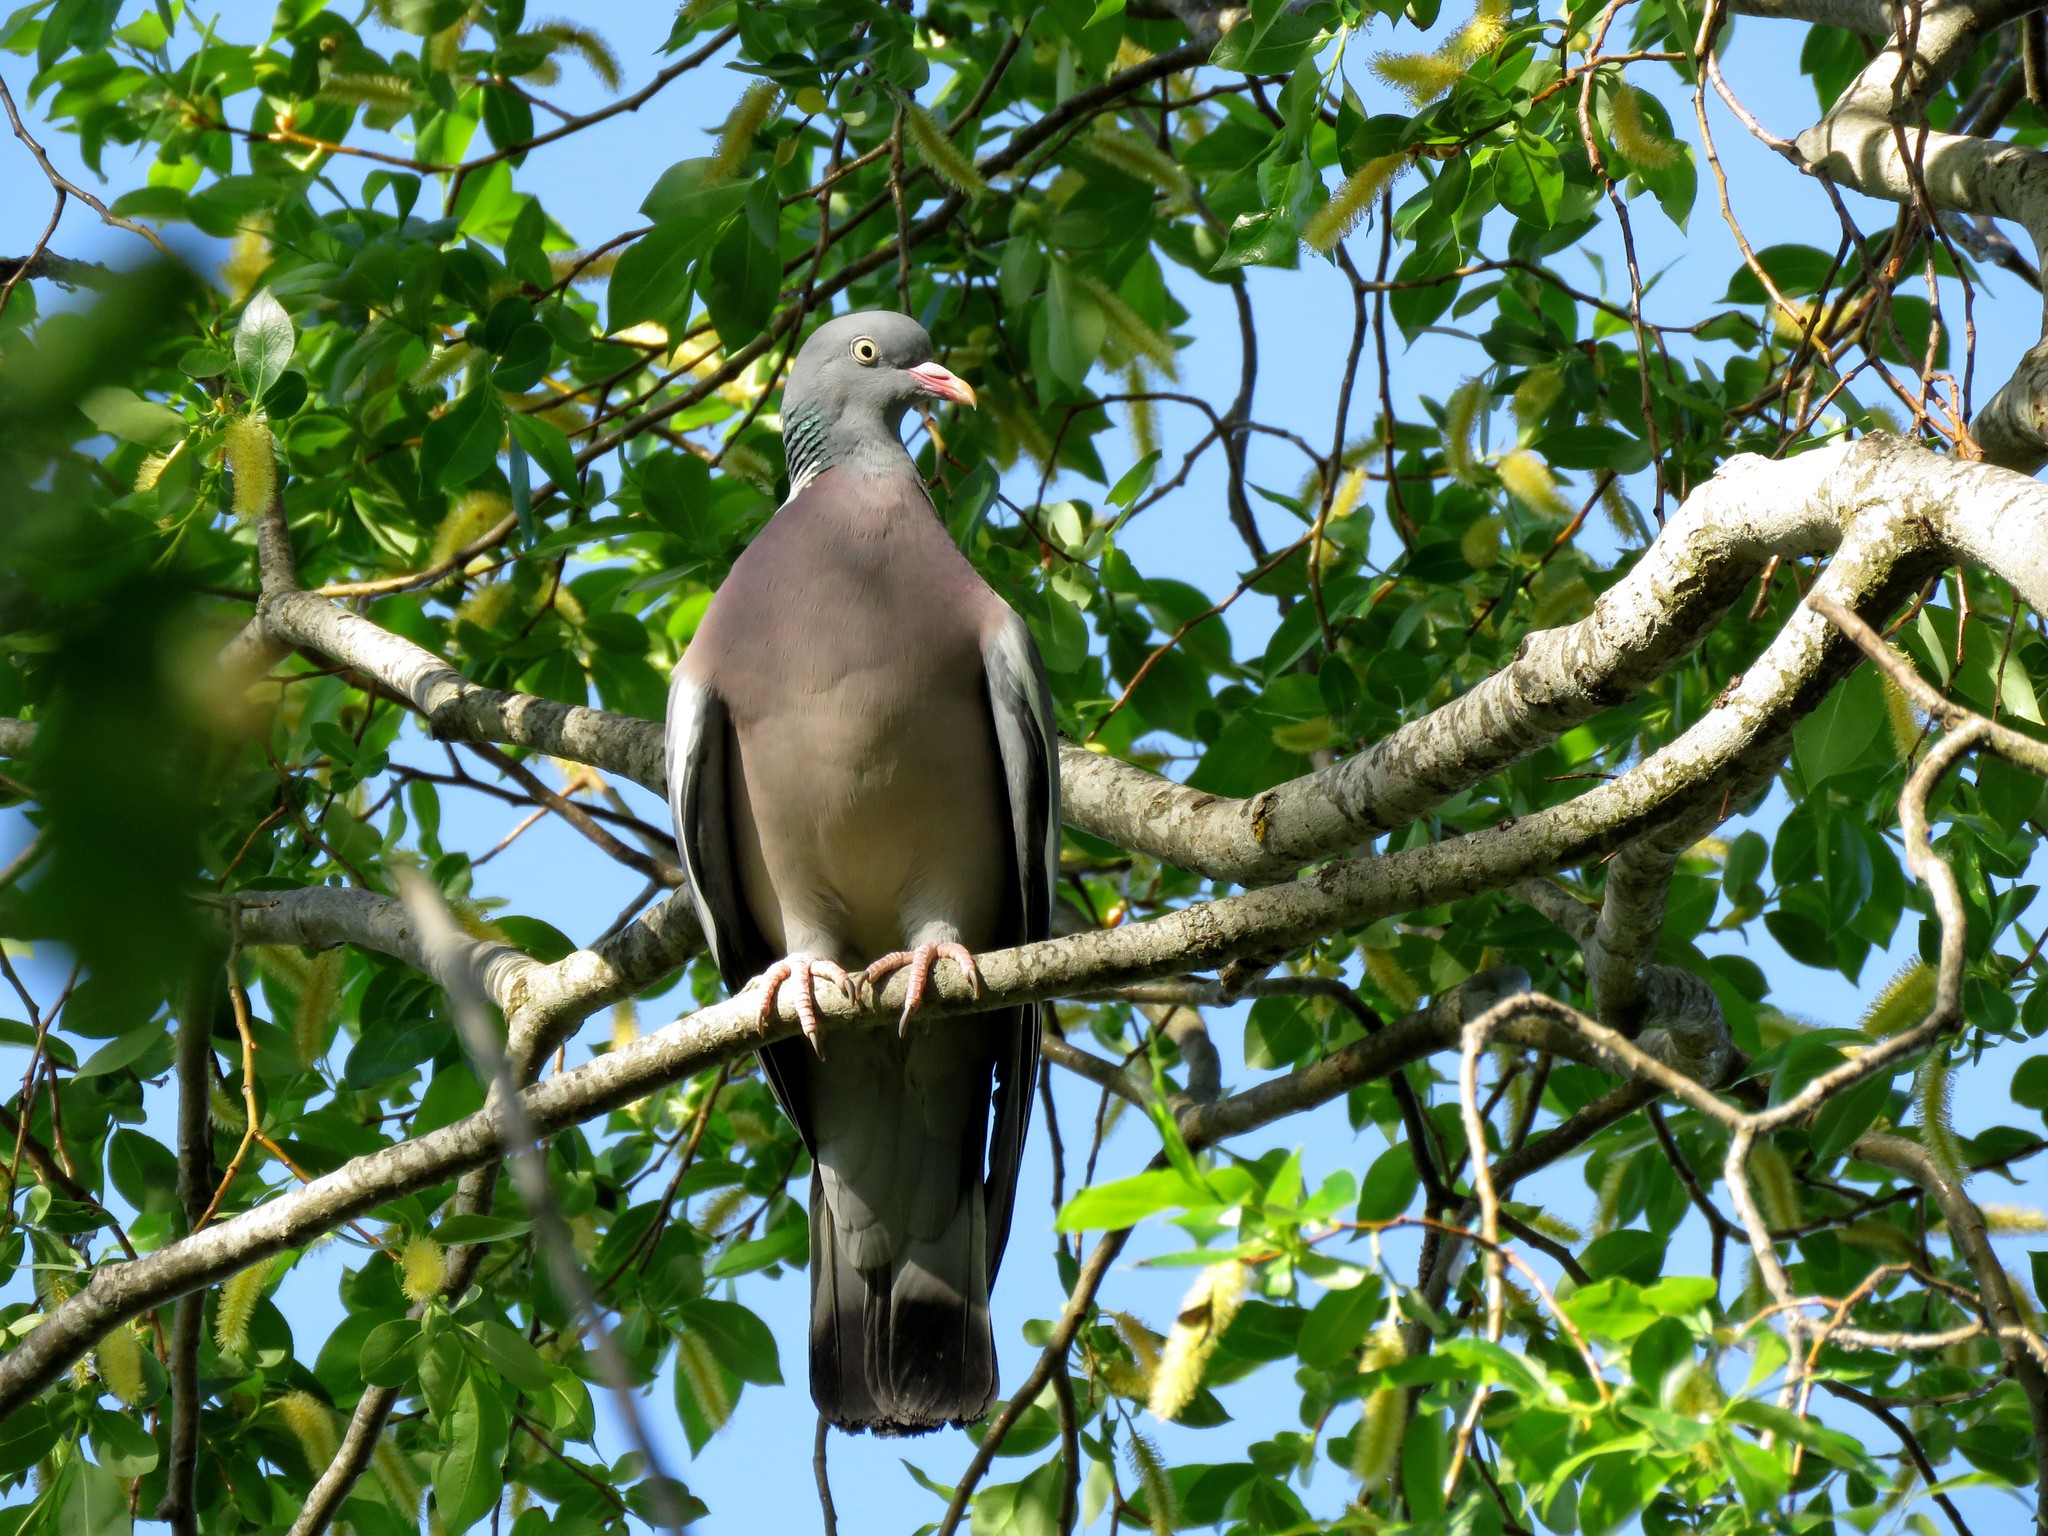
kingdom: Animalia
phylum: Chordata
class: Aves
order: Columbiformes
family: Columbidae
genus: Columba
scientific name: Columba palumbus
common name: Common wood pigeon
